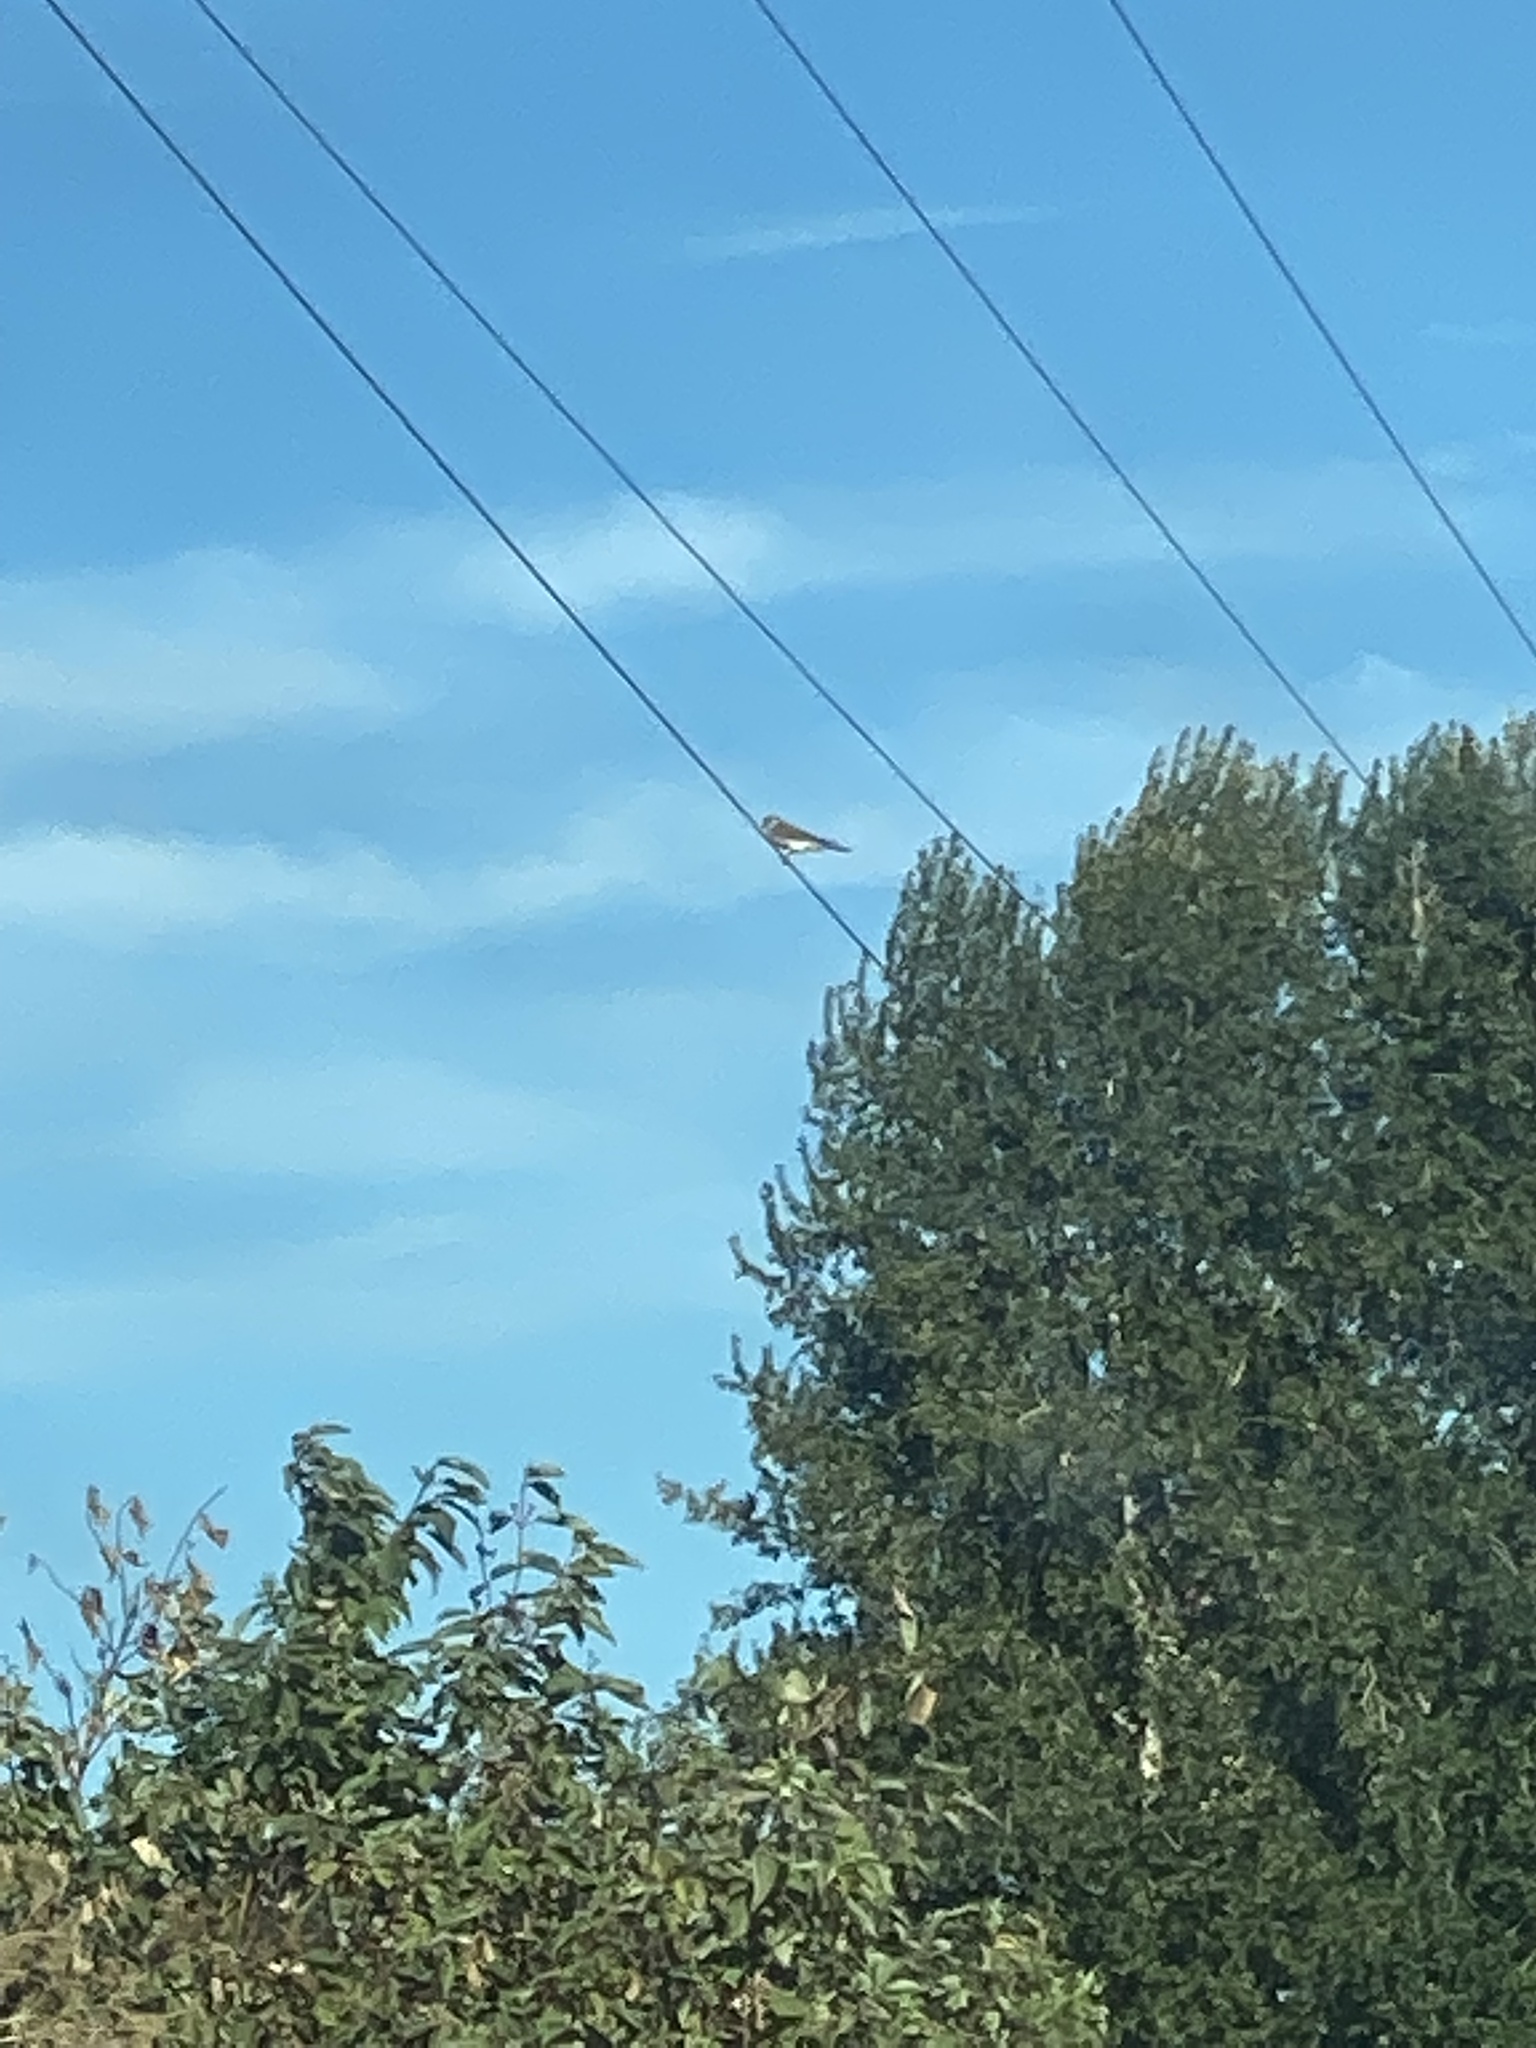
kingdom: Animalia
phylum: Chordata
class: Aves
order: Falconiformes
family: Falconidae
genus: Falco
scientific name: Falco sparverius
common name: American kestrel
